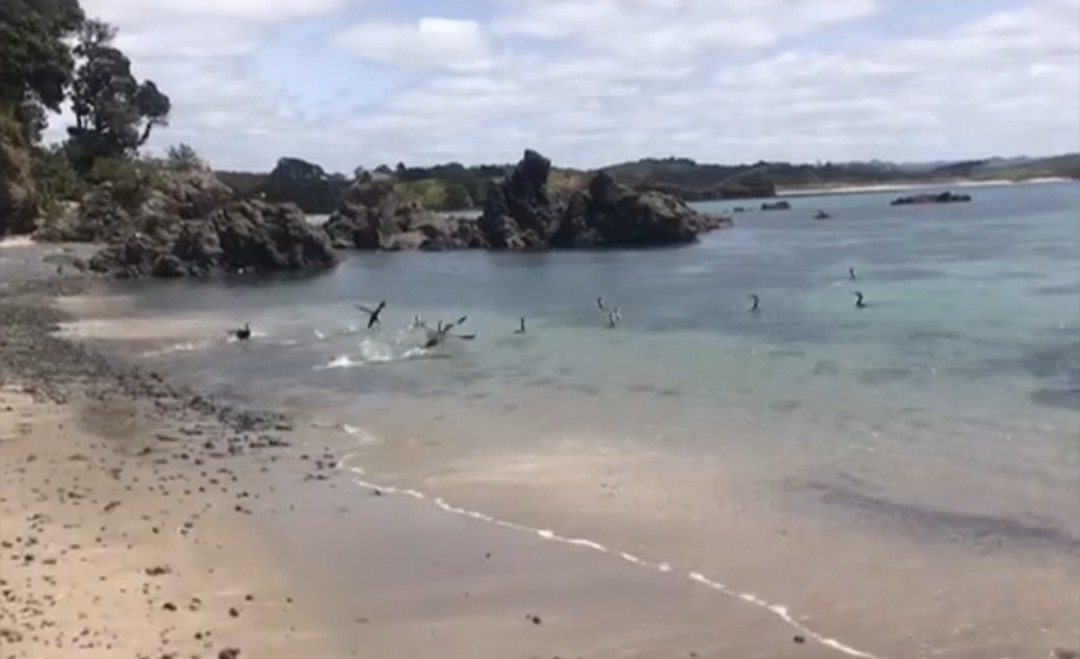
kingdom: Animalia
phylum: Chordata
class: Aves
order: Suliformes
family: Phalacrocoracidae
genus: Phalacrocorax
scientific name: Phalacrocorax varius
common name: Pied cormorant
